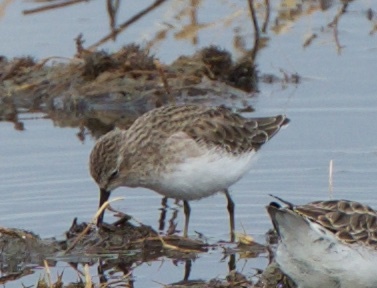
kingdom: Animalia
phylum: Chordata
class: Aves
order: Charadriiformes
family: Scolopacidae
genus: Calidris
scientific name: Calidris minutilla
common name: Least sandpiper
